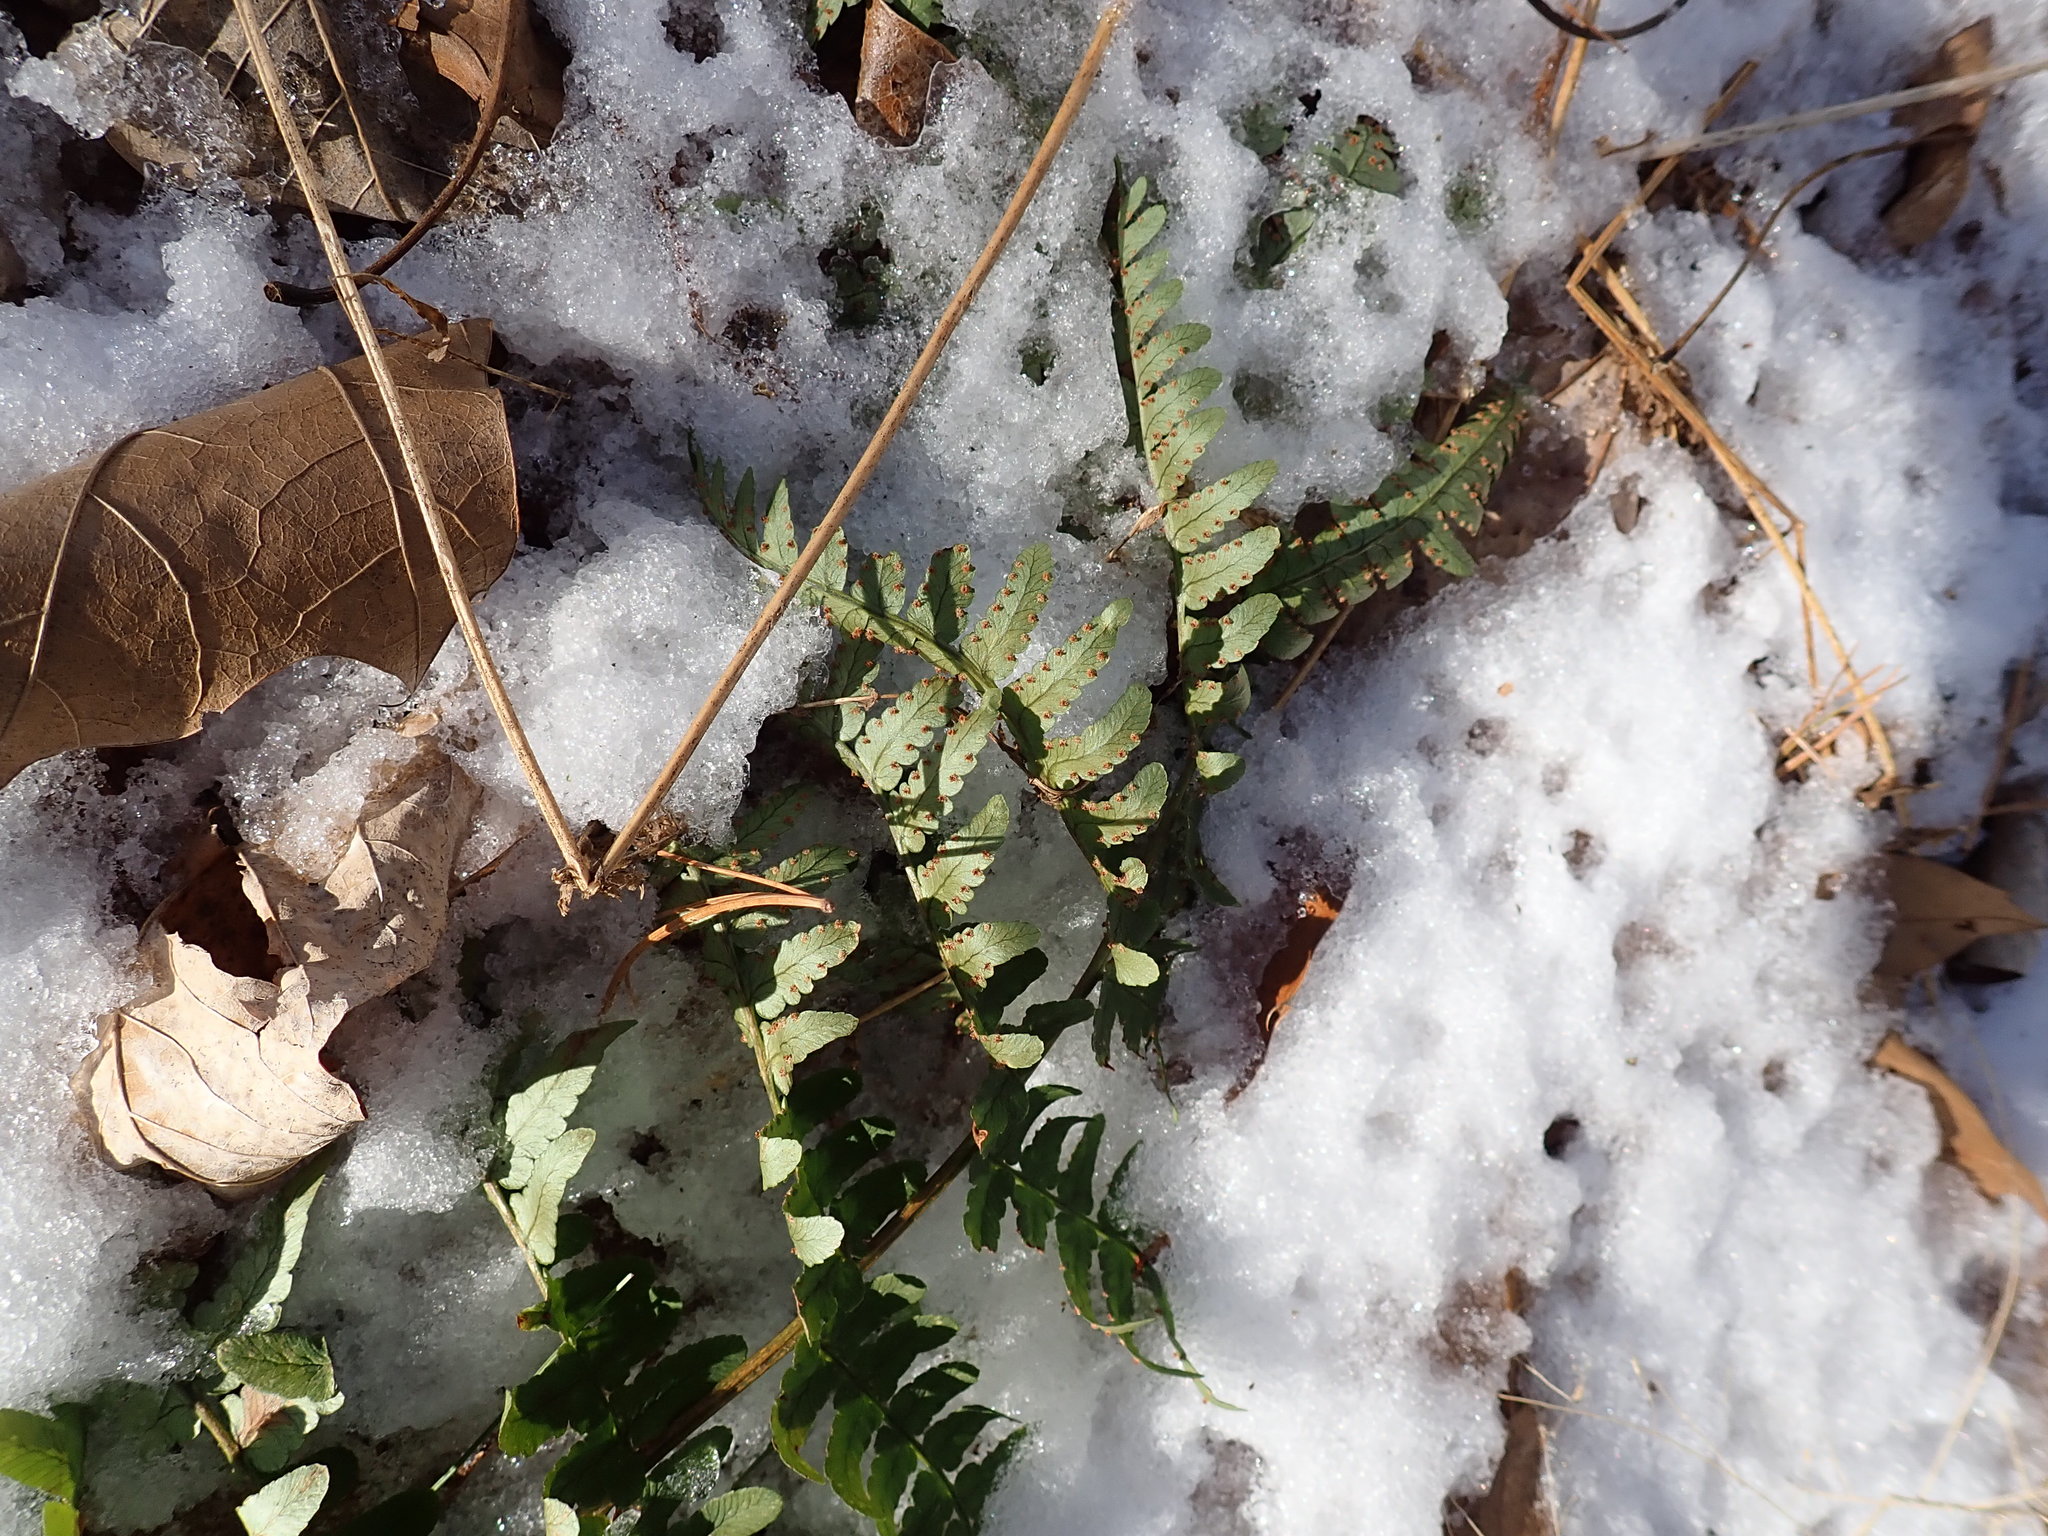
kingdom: Plantae
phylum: Tracheophyta
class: Polypodiopsida
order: Polypodiales
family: Dryopteridaceae
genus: Dryopteris
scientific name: Dryopteris marginalis
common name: Marginal wood fern
